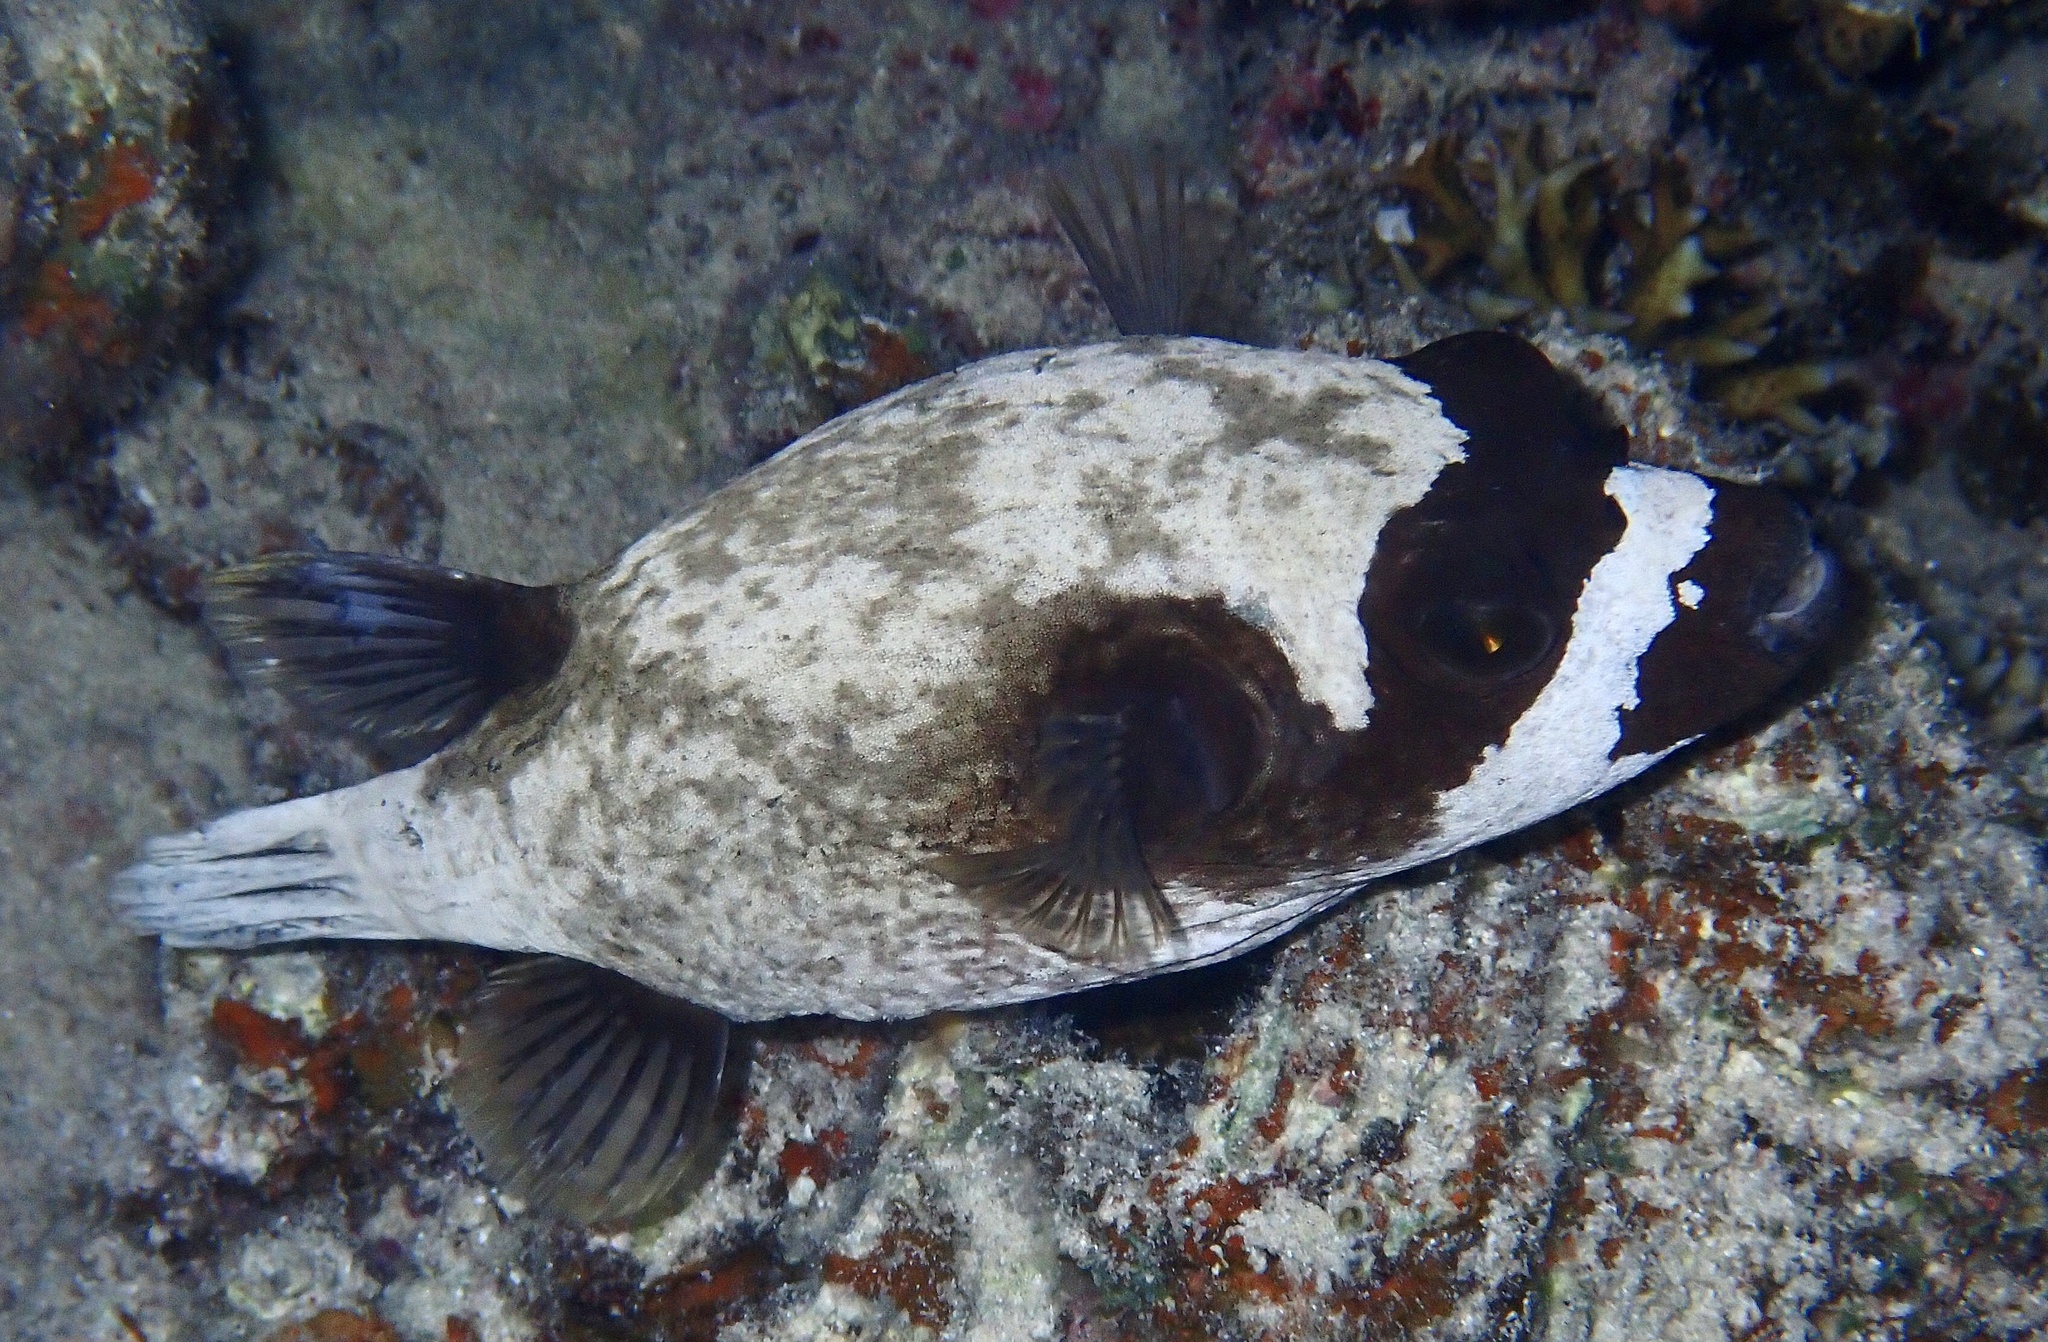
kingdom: Animalia
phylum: Chordata
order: Tetraodontiformes
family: Tetraodontidae
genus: Arothron
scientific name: Arothron diadematus
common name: Masked puffer
